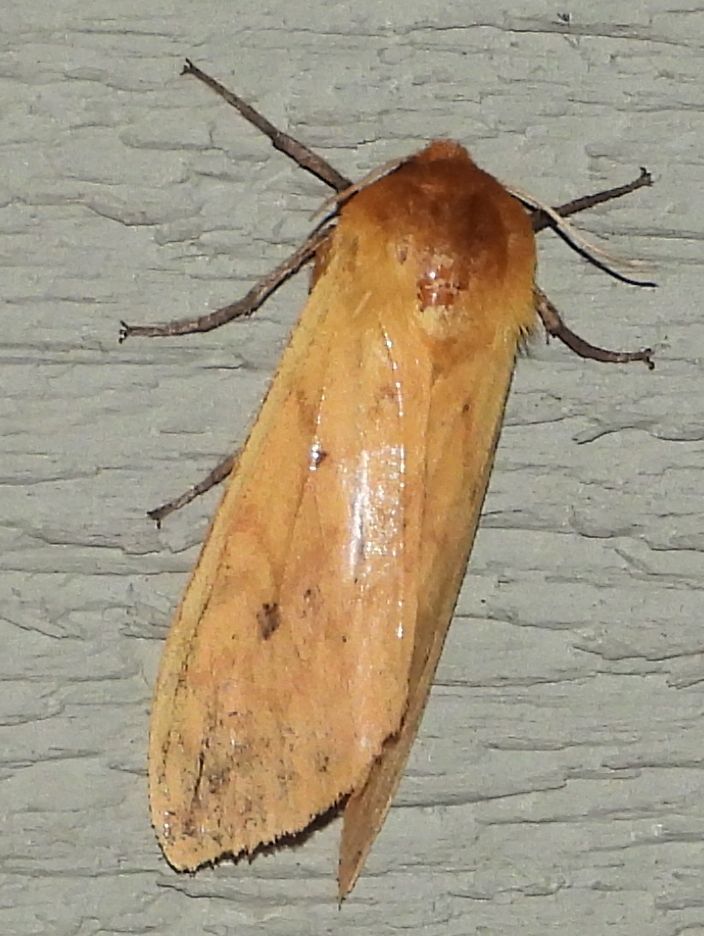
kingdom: Animalia
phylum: Arthropoda
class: Insecta
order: Lepidoptera
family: Erebidae
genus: Pyrrharctia
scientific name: Pyrrharctia isabella
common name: Isabella tiger moth
